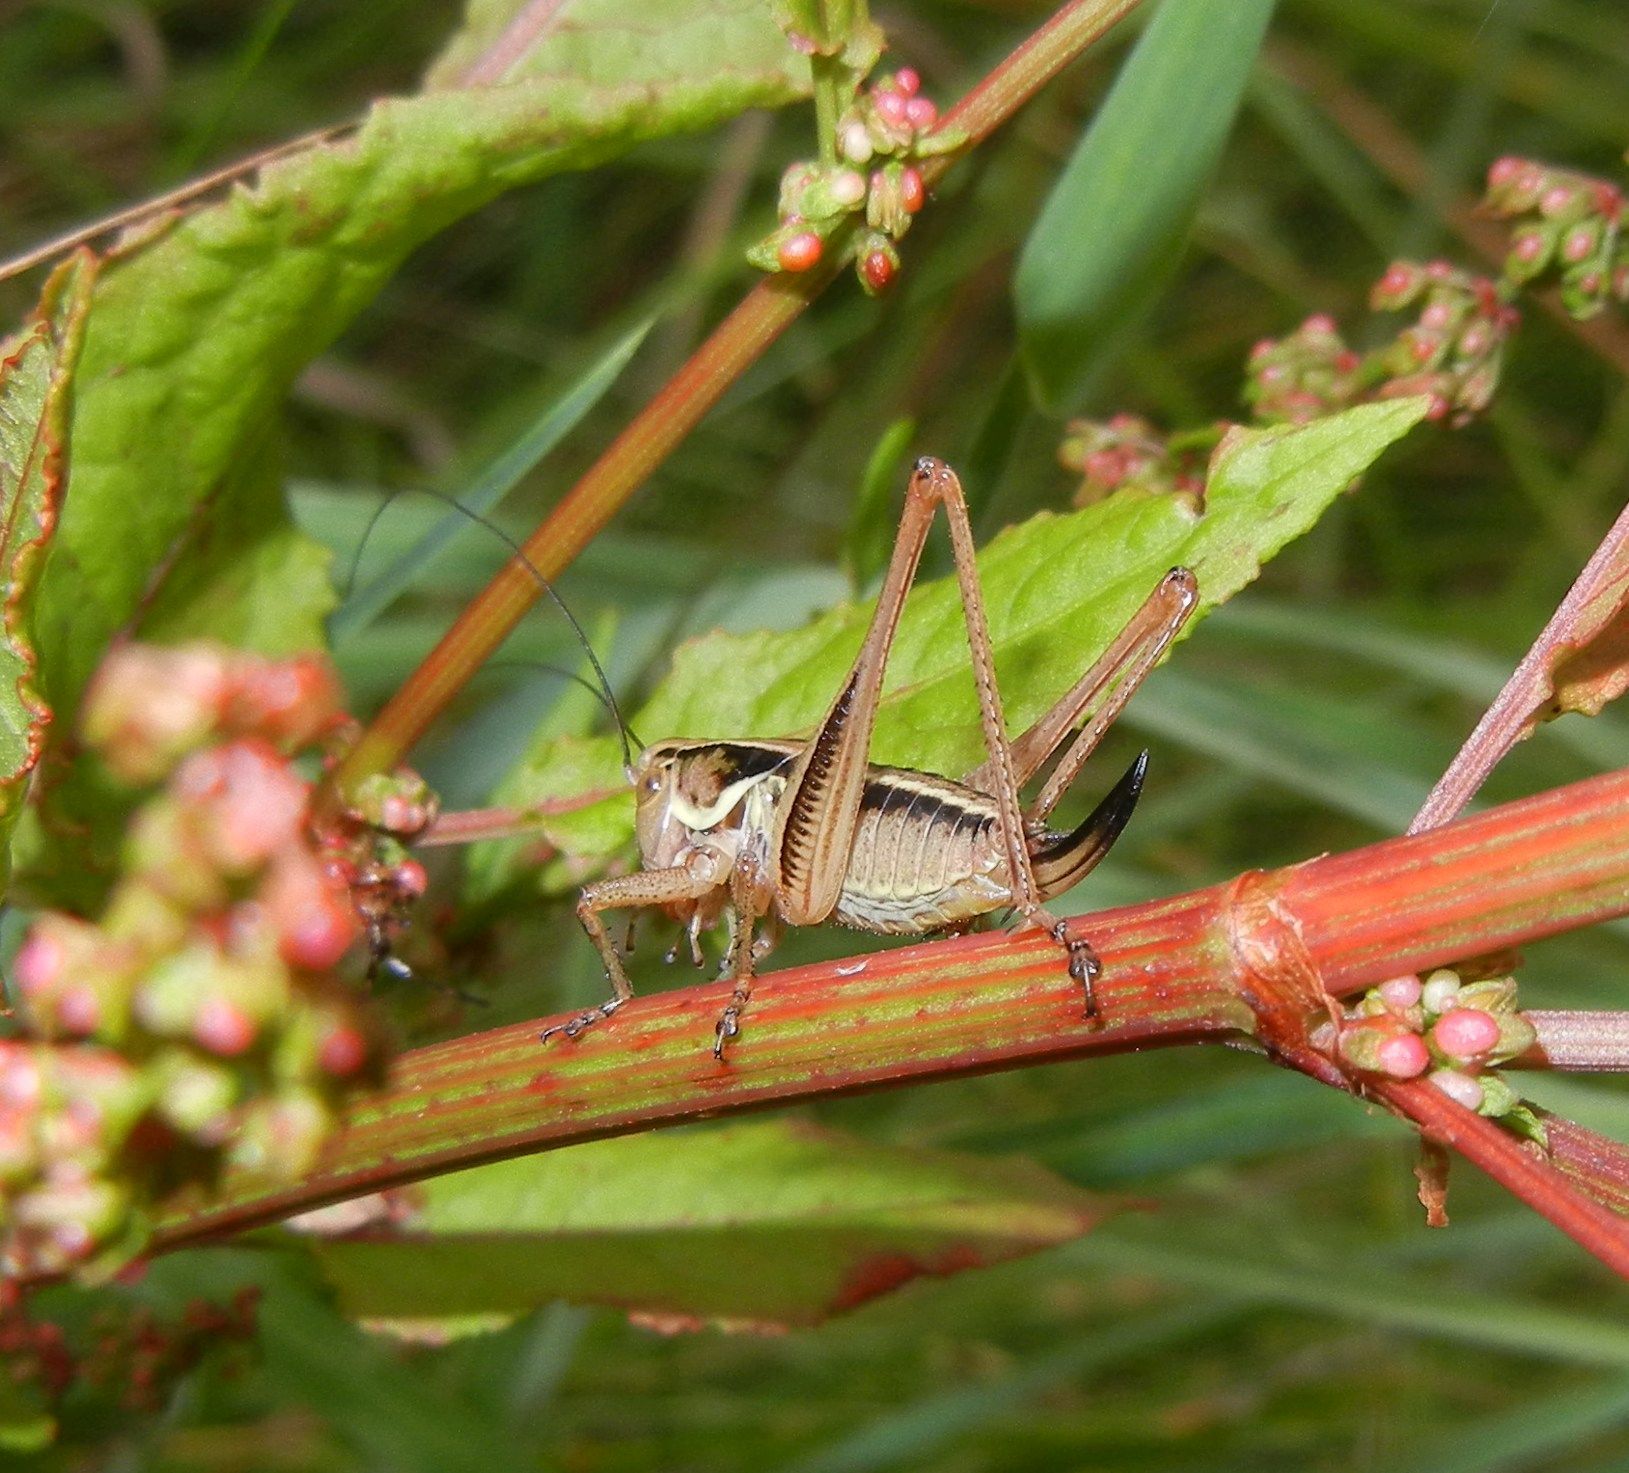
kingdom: Animalia
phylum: Arthropoda
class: Insecta
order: Orthoptera
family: Tettigoniidae
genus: Roeseliana
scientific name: Roeseliana roeselii
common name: Roesel's bush cricket
